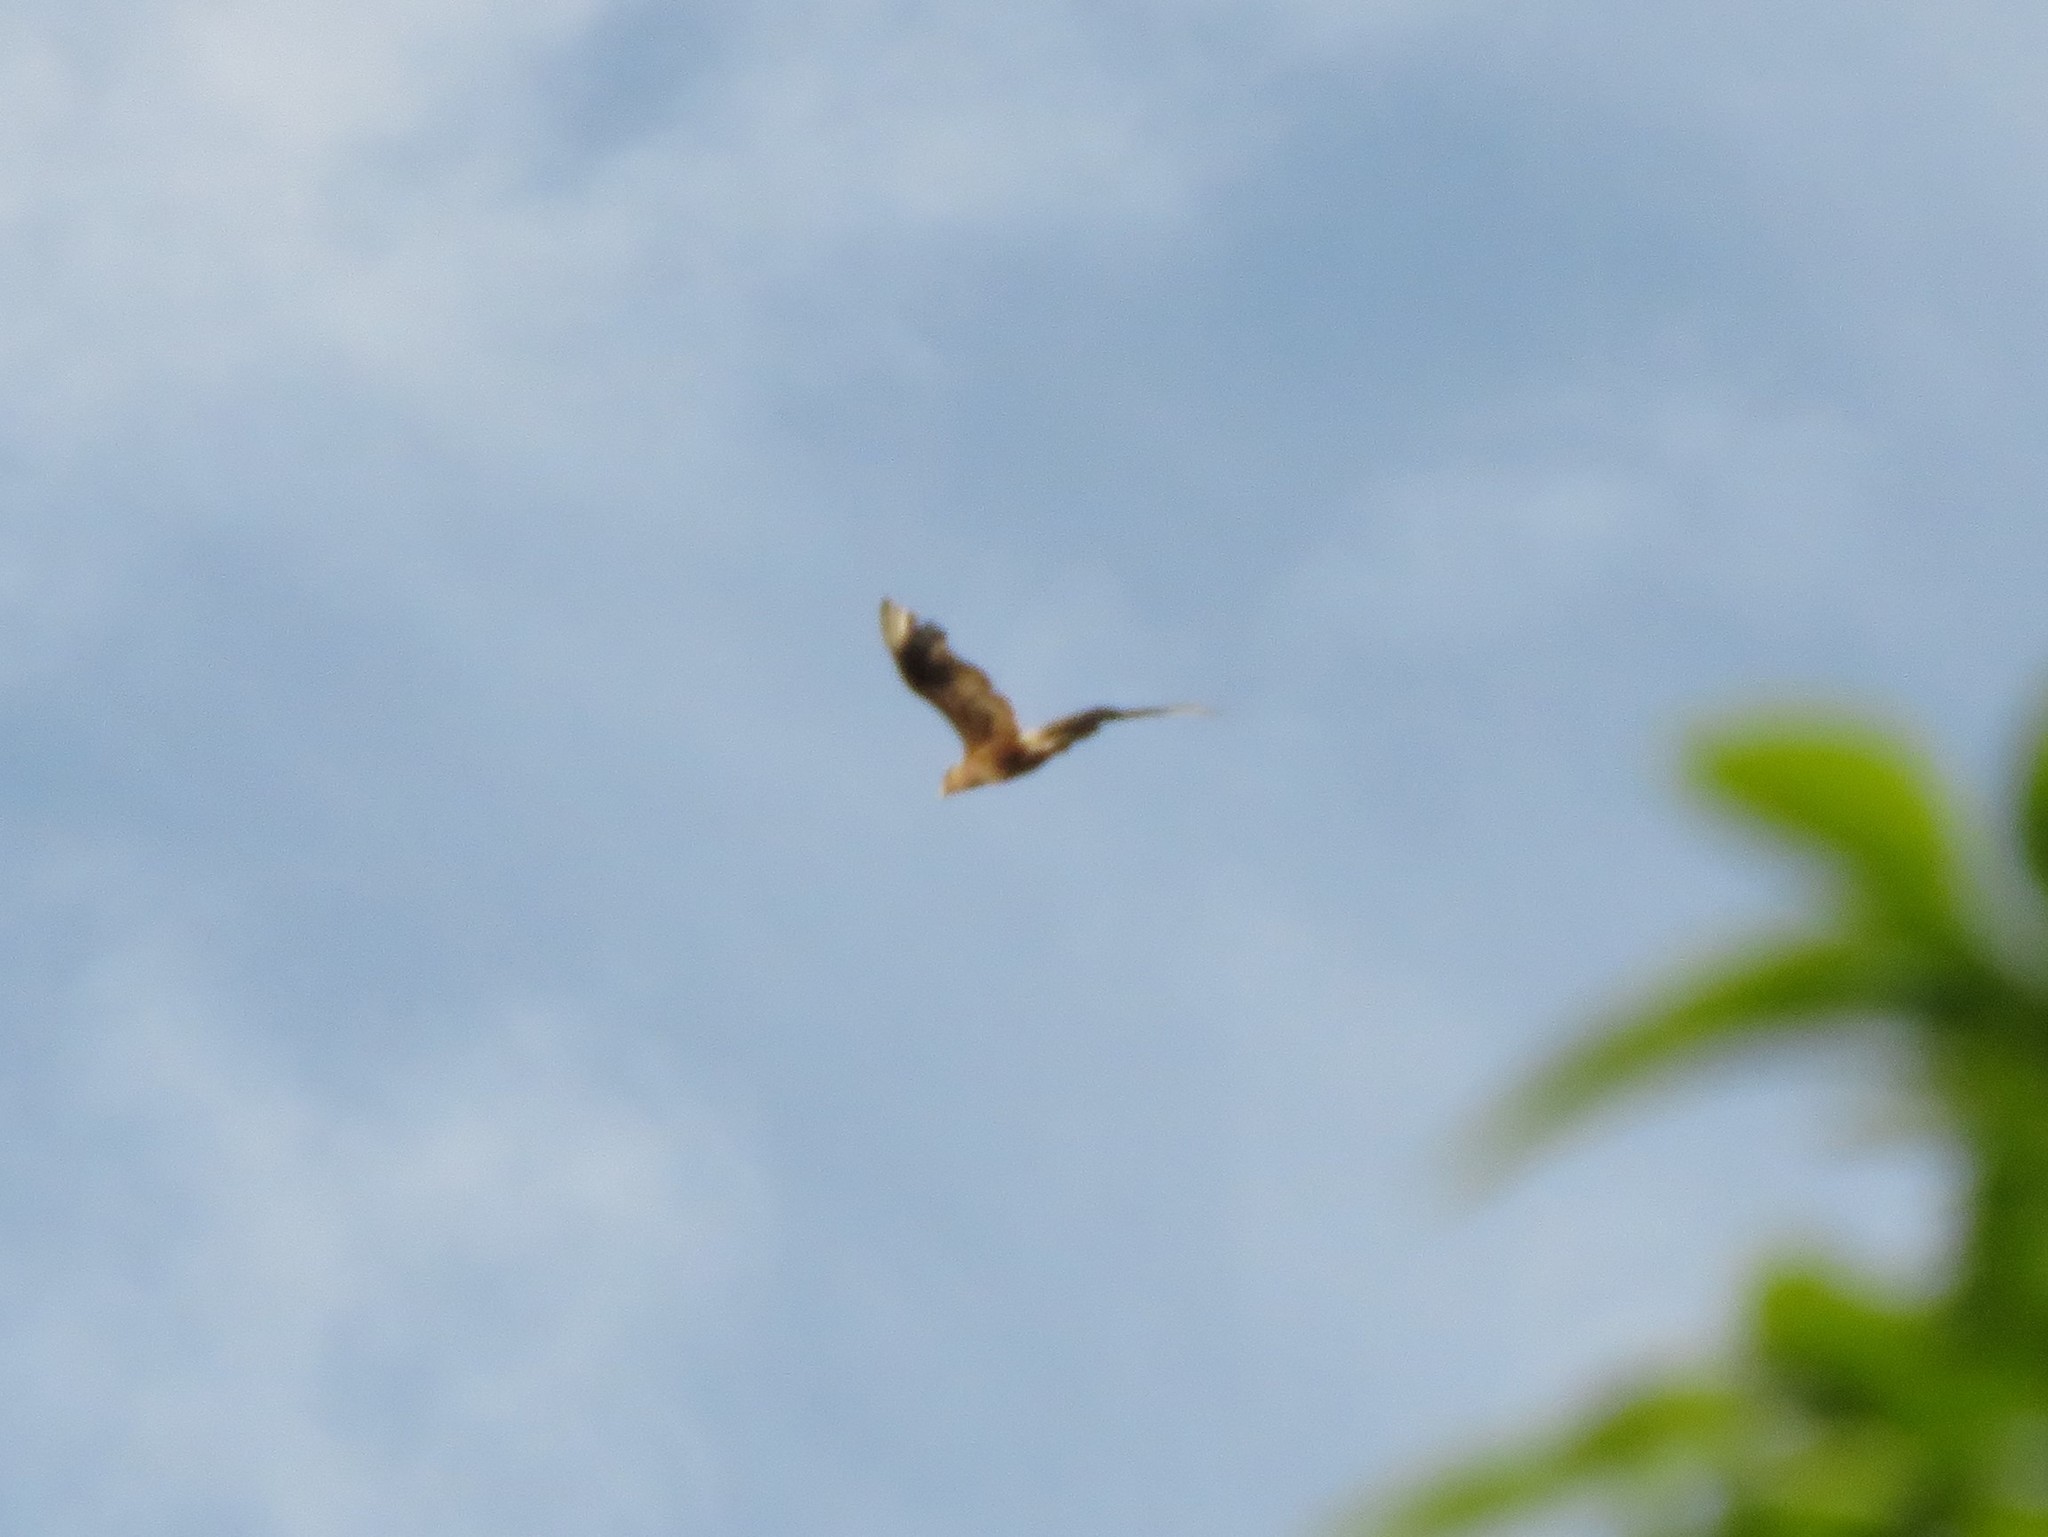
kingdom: Animalia
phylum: Chordata
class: Aves
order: Falconiformes
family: Falconidae
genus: Caracara
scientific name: Caracara plancus
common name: Southern caracara
